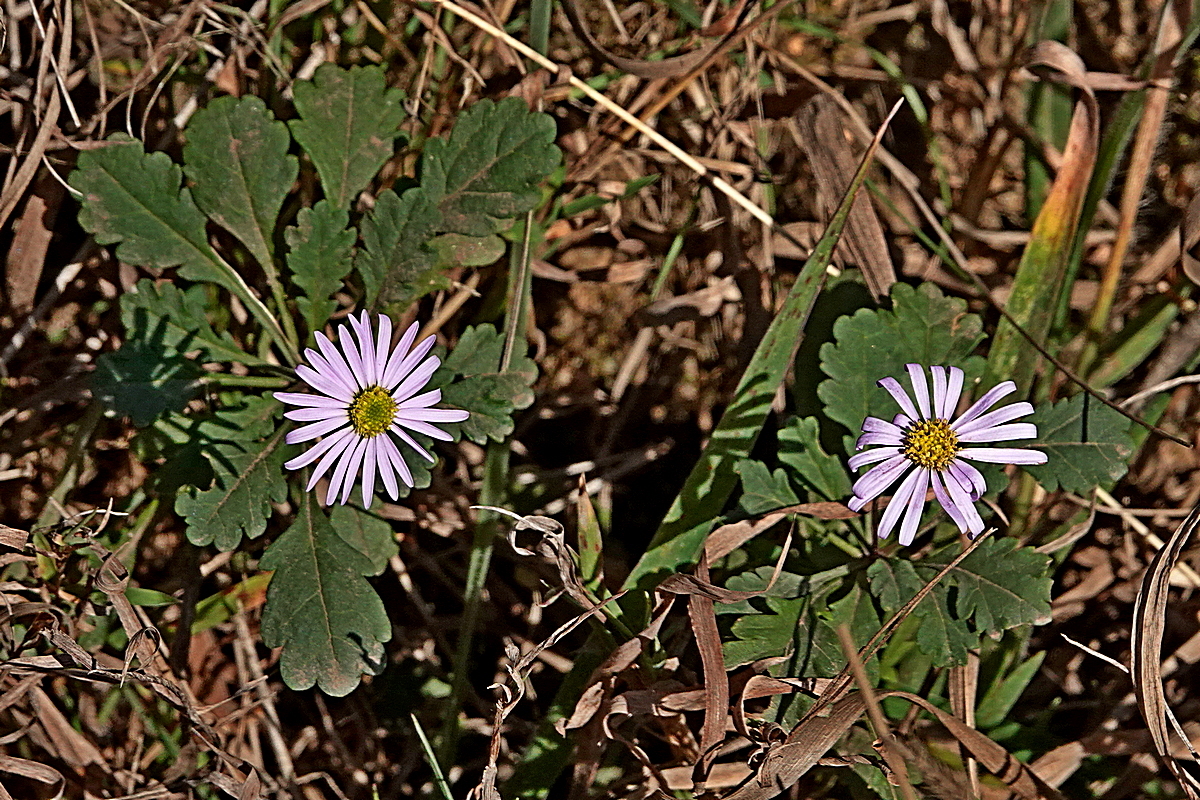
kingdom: Plantae
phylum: Tracheophyta
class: Magnoliopsida
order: Asterales
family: Asteraceae
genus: Brachyscome
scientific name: Brachyscome salkiniae
